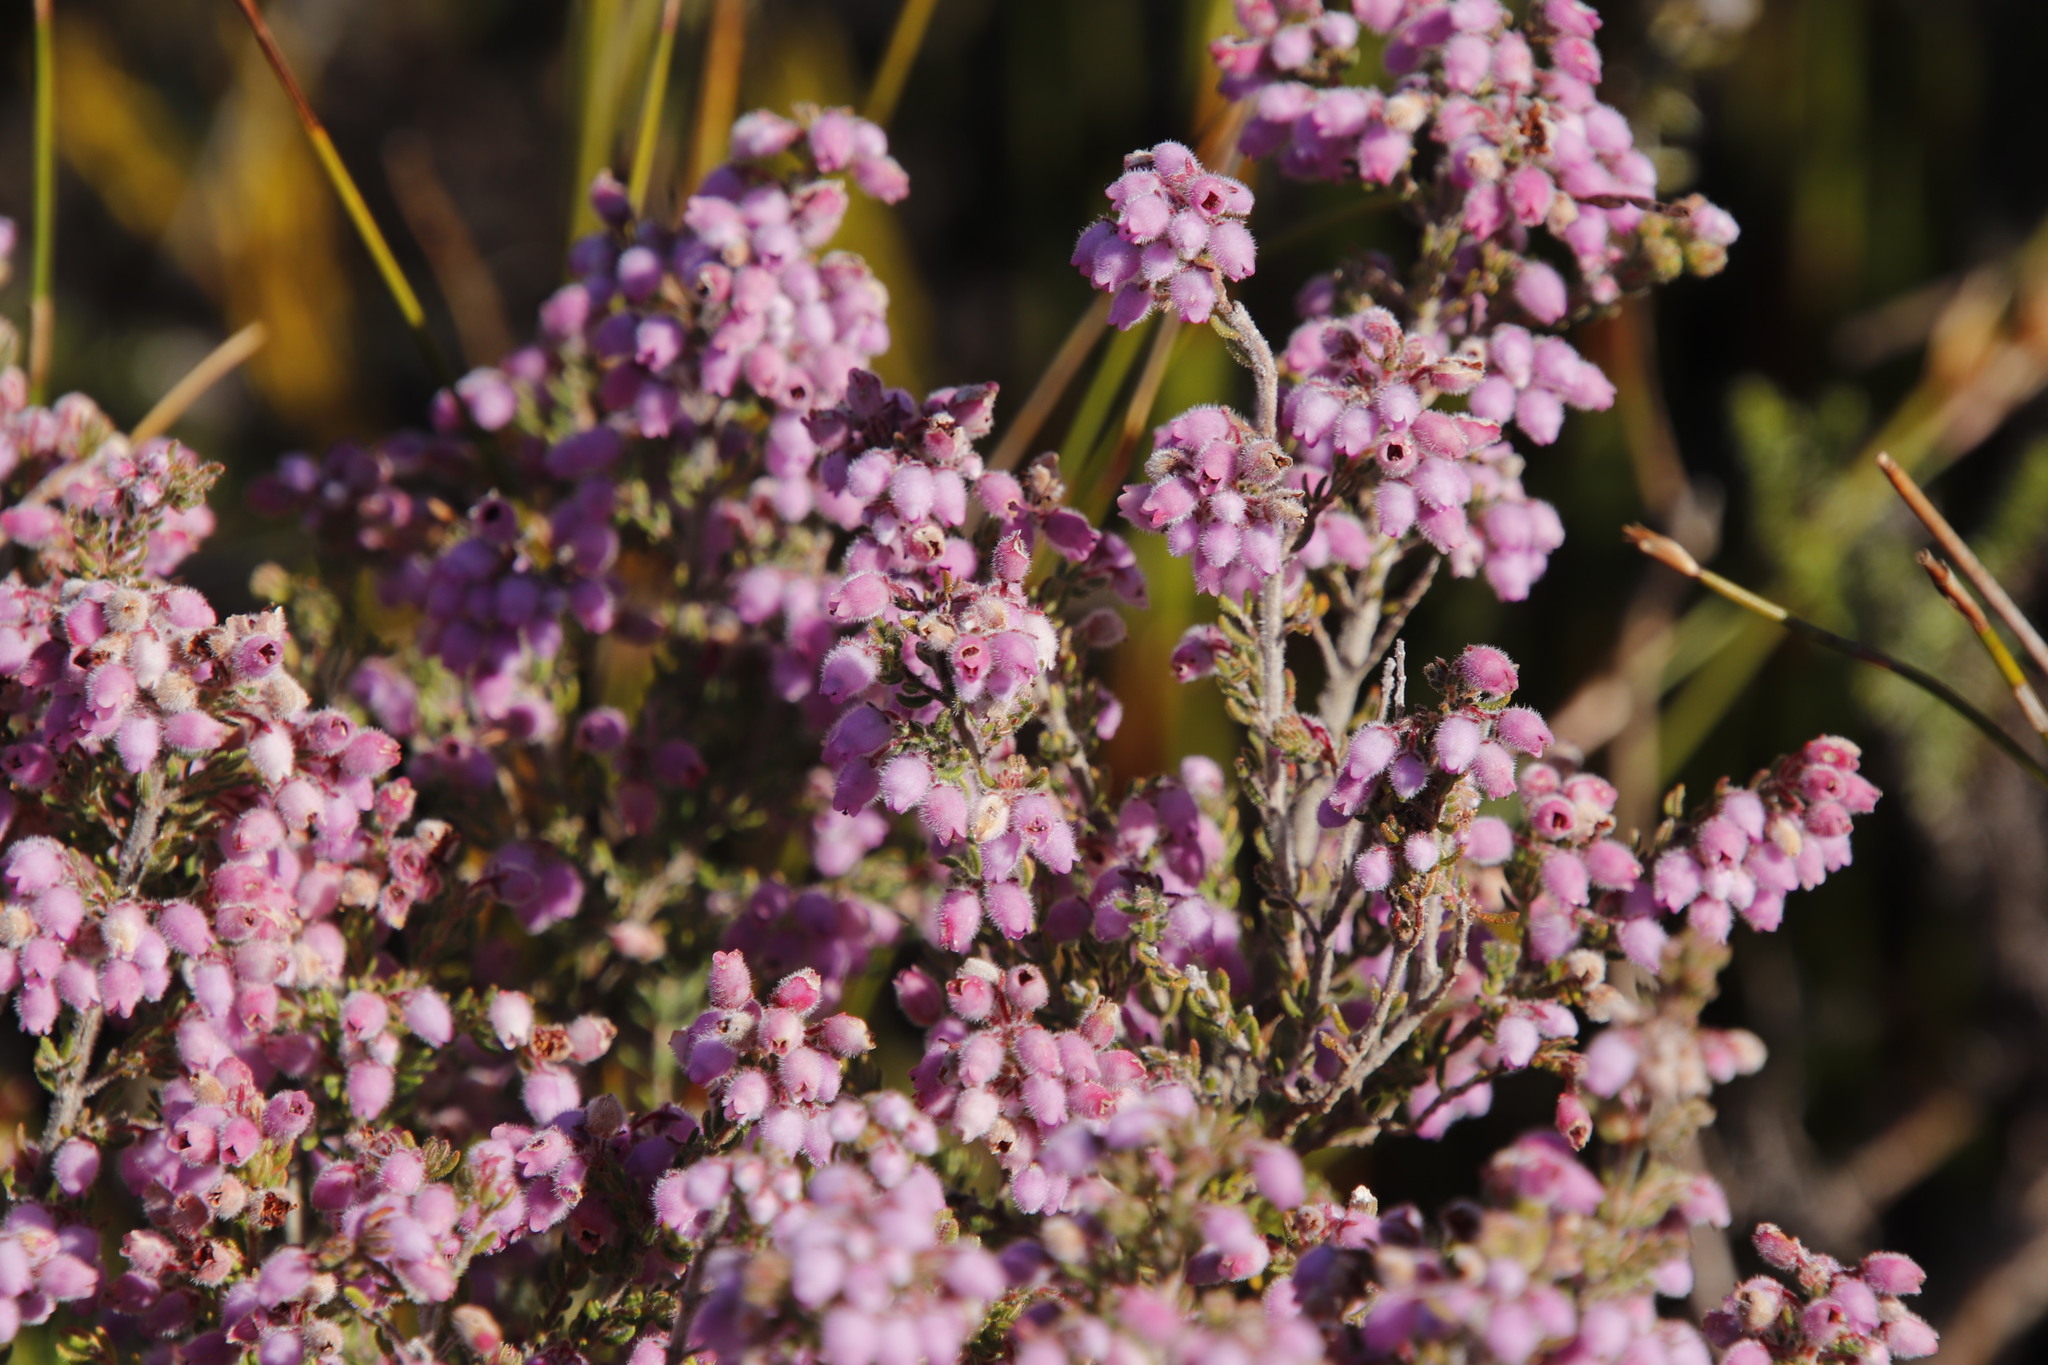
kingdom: Plantae
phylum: Tracheophyta
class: Magnoliopsida
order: Ericales
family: Ericaceae
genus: Erica
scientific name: Erica hirtiflora
